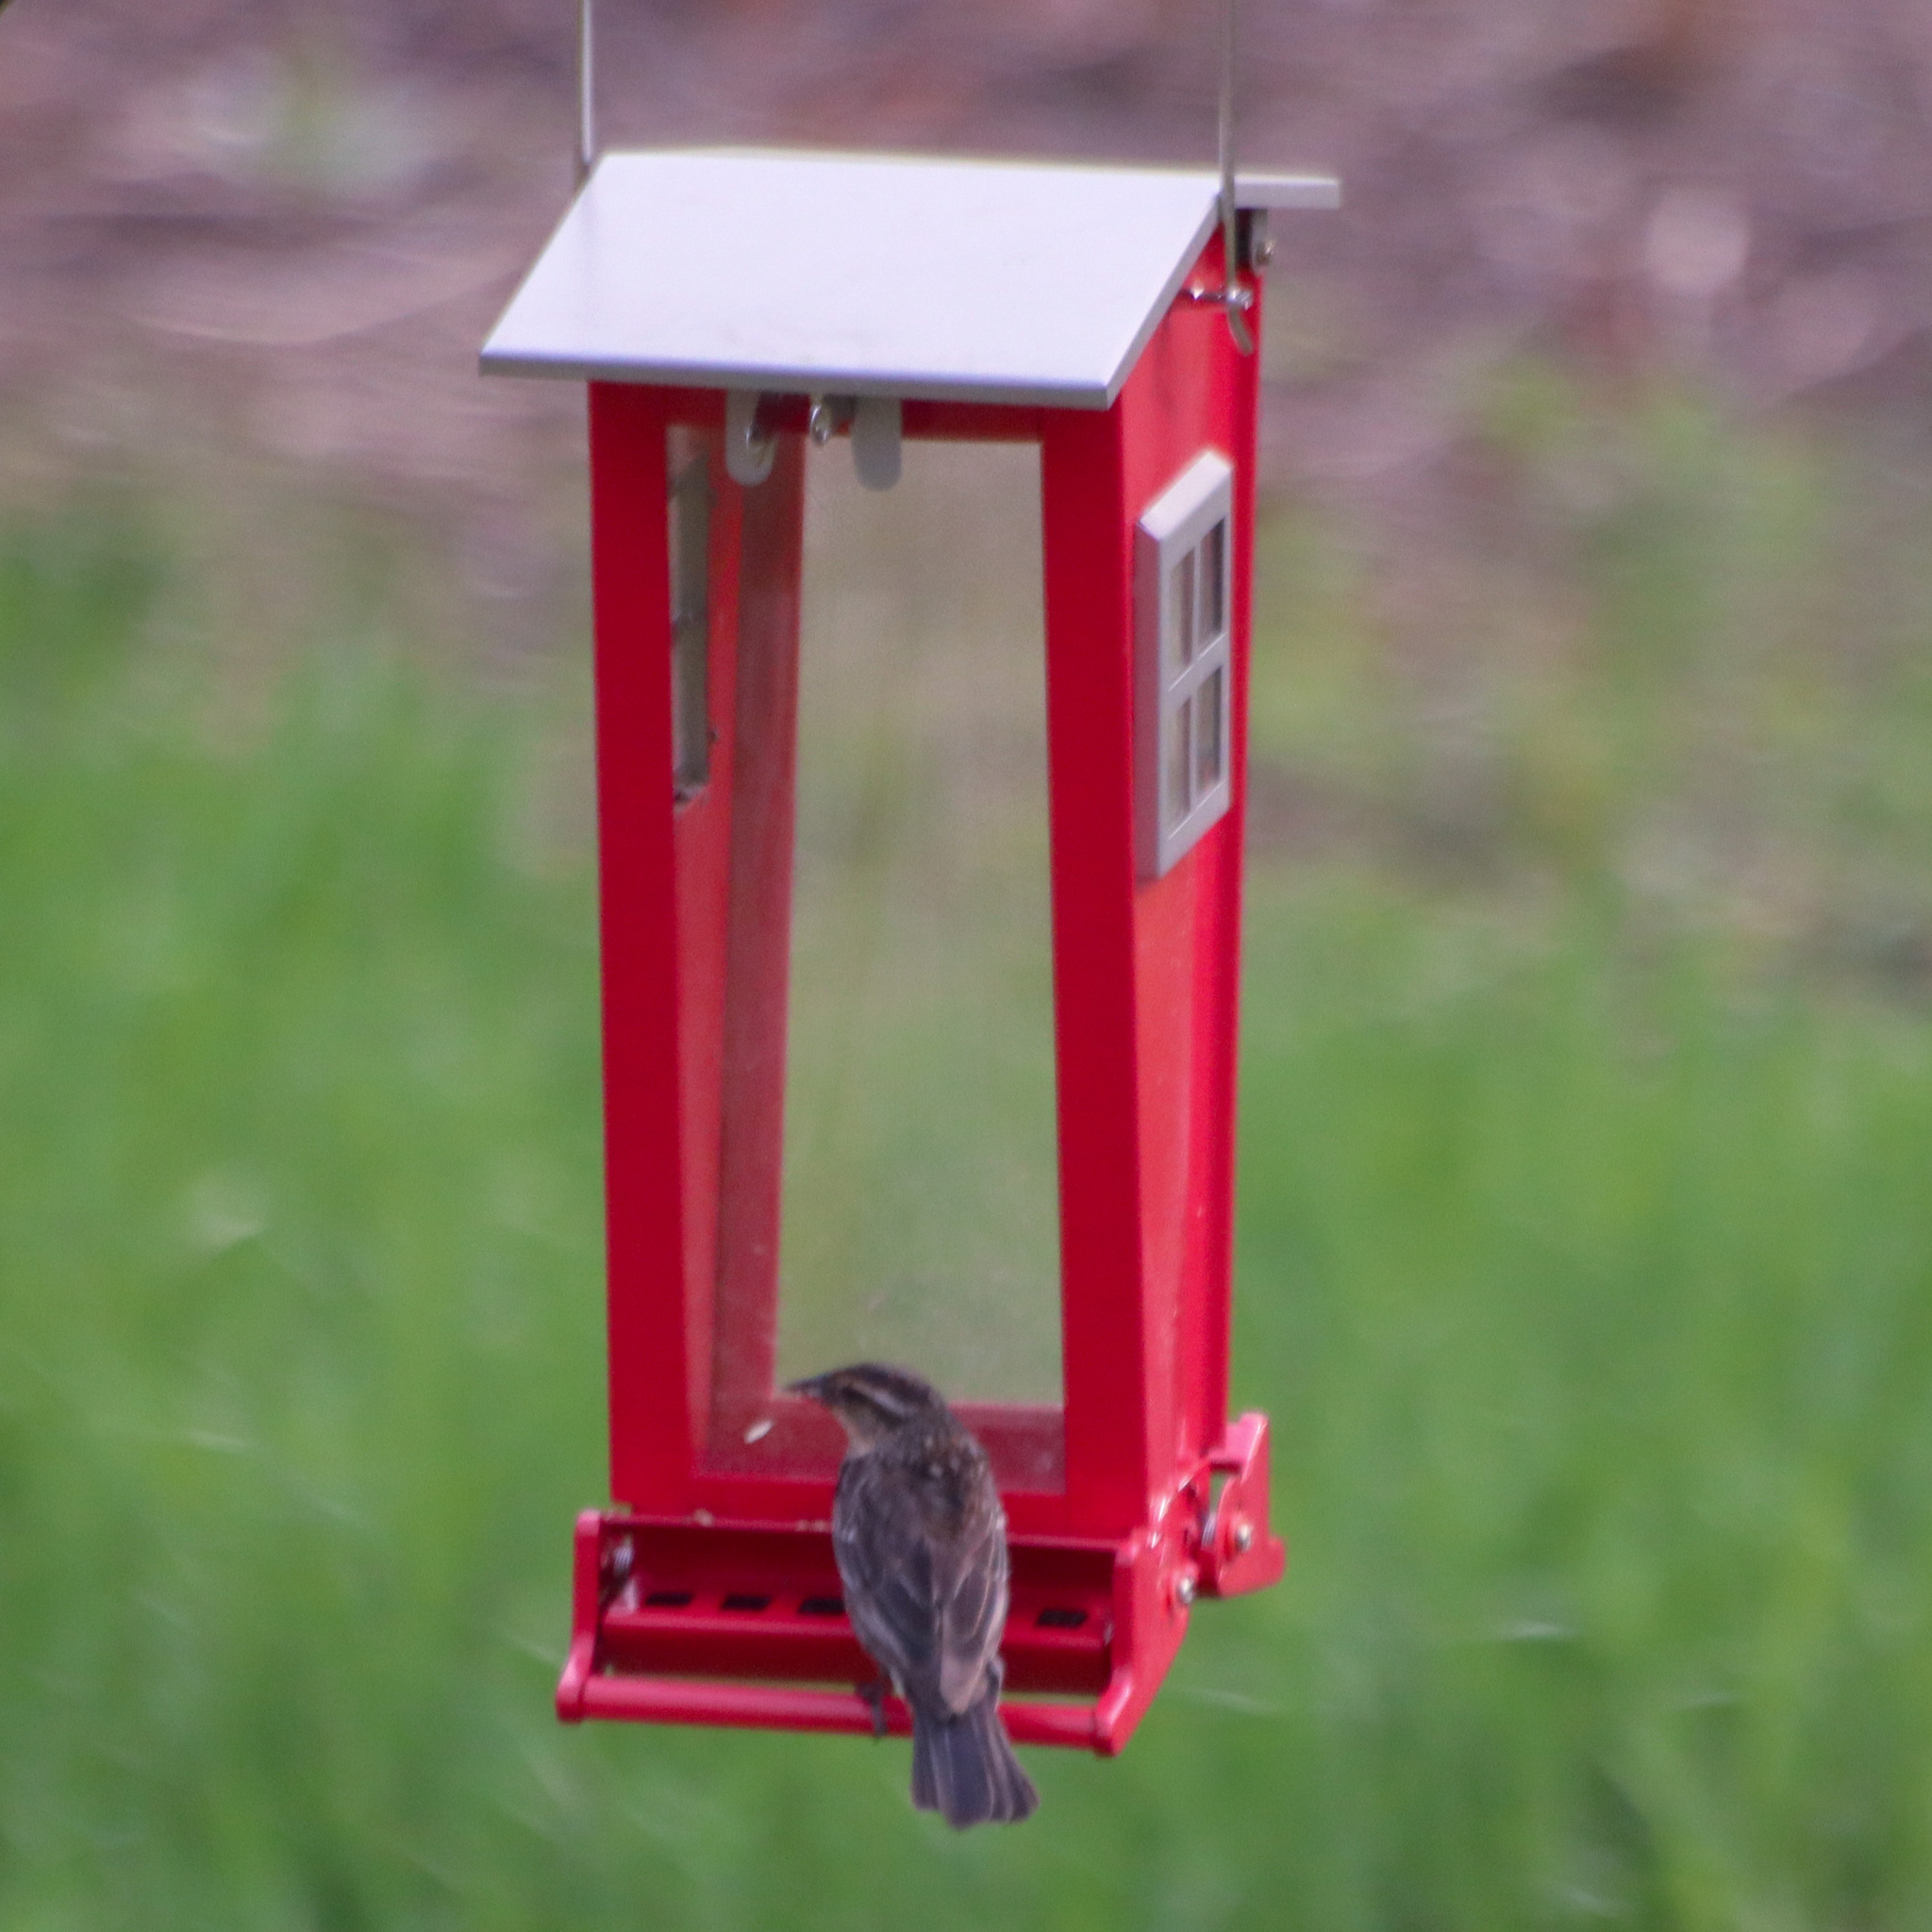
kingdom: Animalia
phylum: Chordata
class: Aves
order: Passeriformes
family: Icteridae
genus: Agelaius
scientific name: Agelaius phoeniceus
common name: Red-winged blackbird
